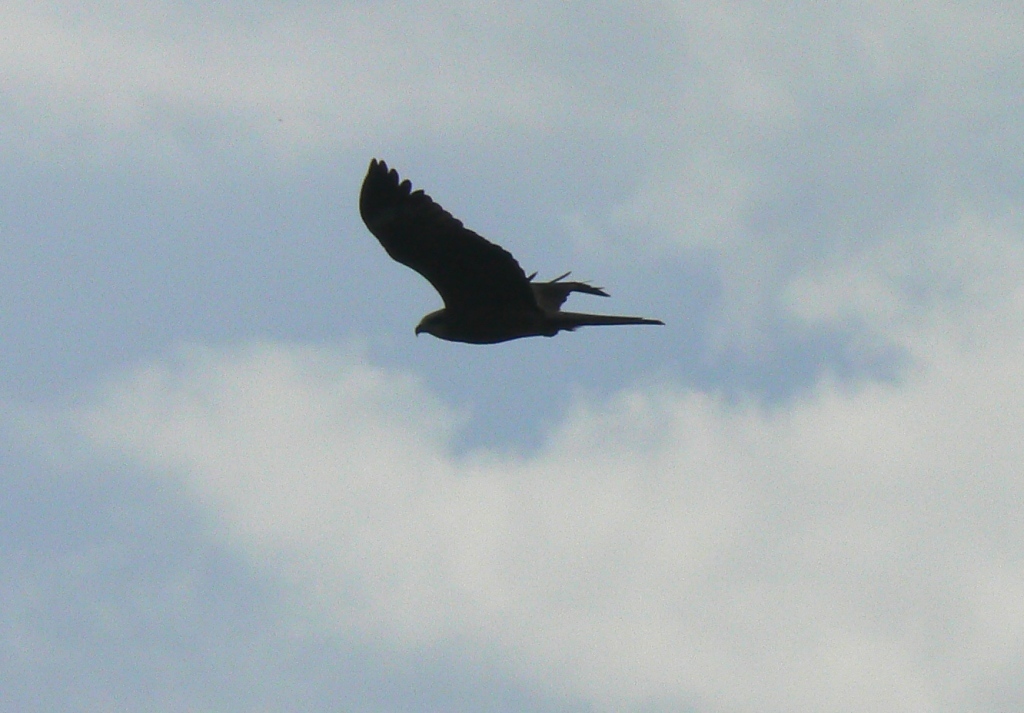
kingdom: Animalia
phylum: Chordata
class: Aves
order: Accipitriformes
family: Accipitridae
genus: Milvus
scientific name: Milvus migrans
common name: Black kite
